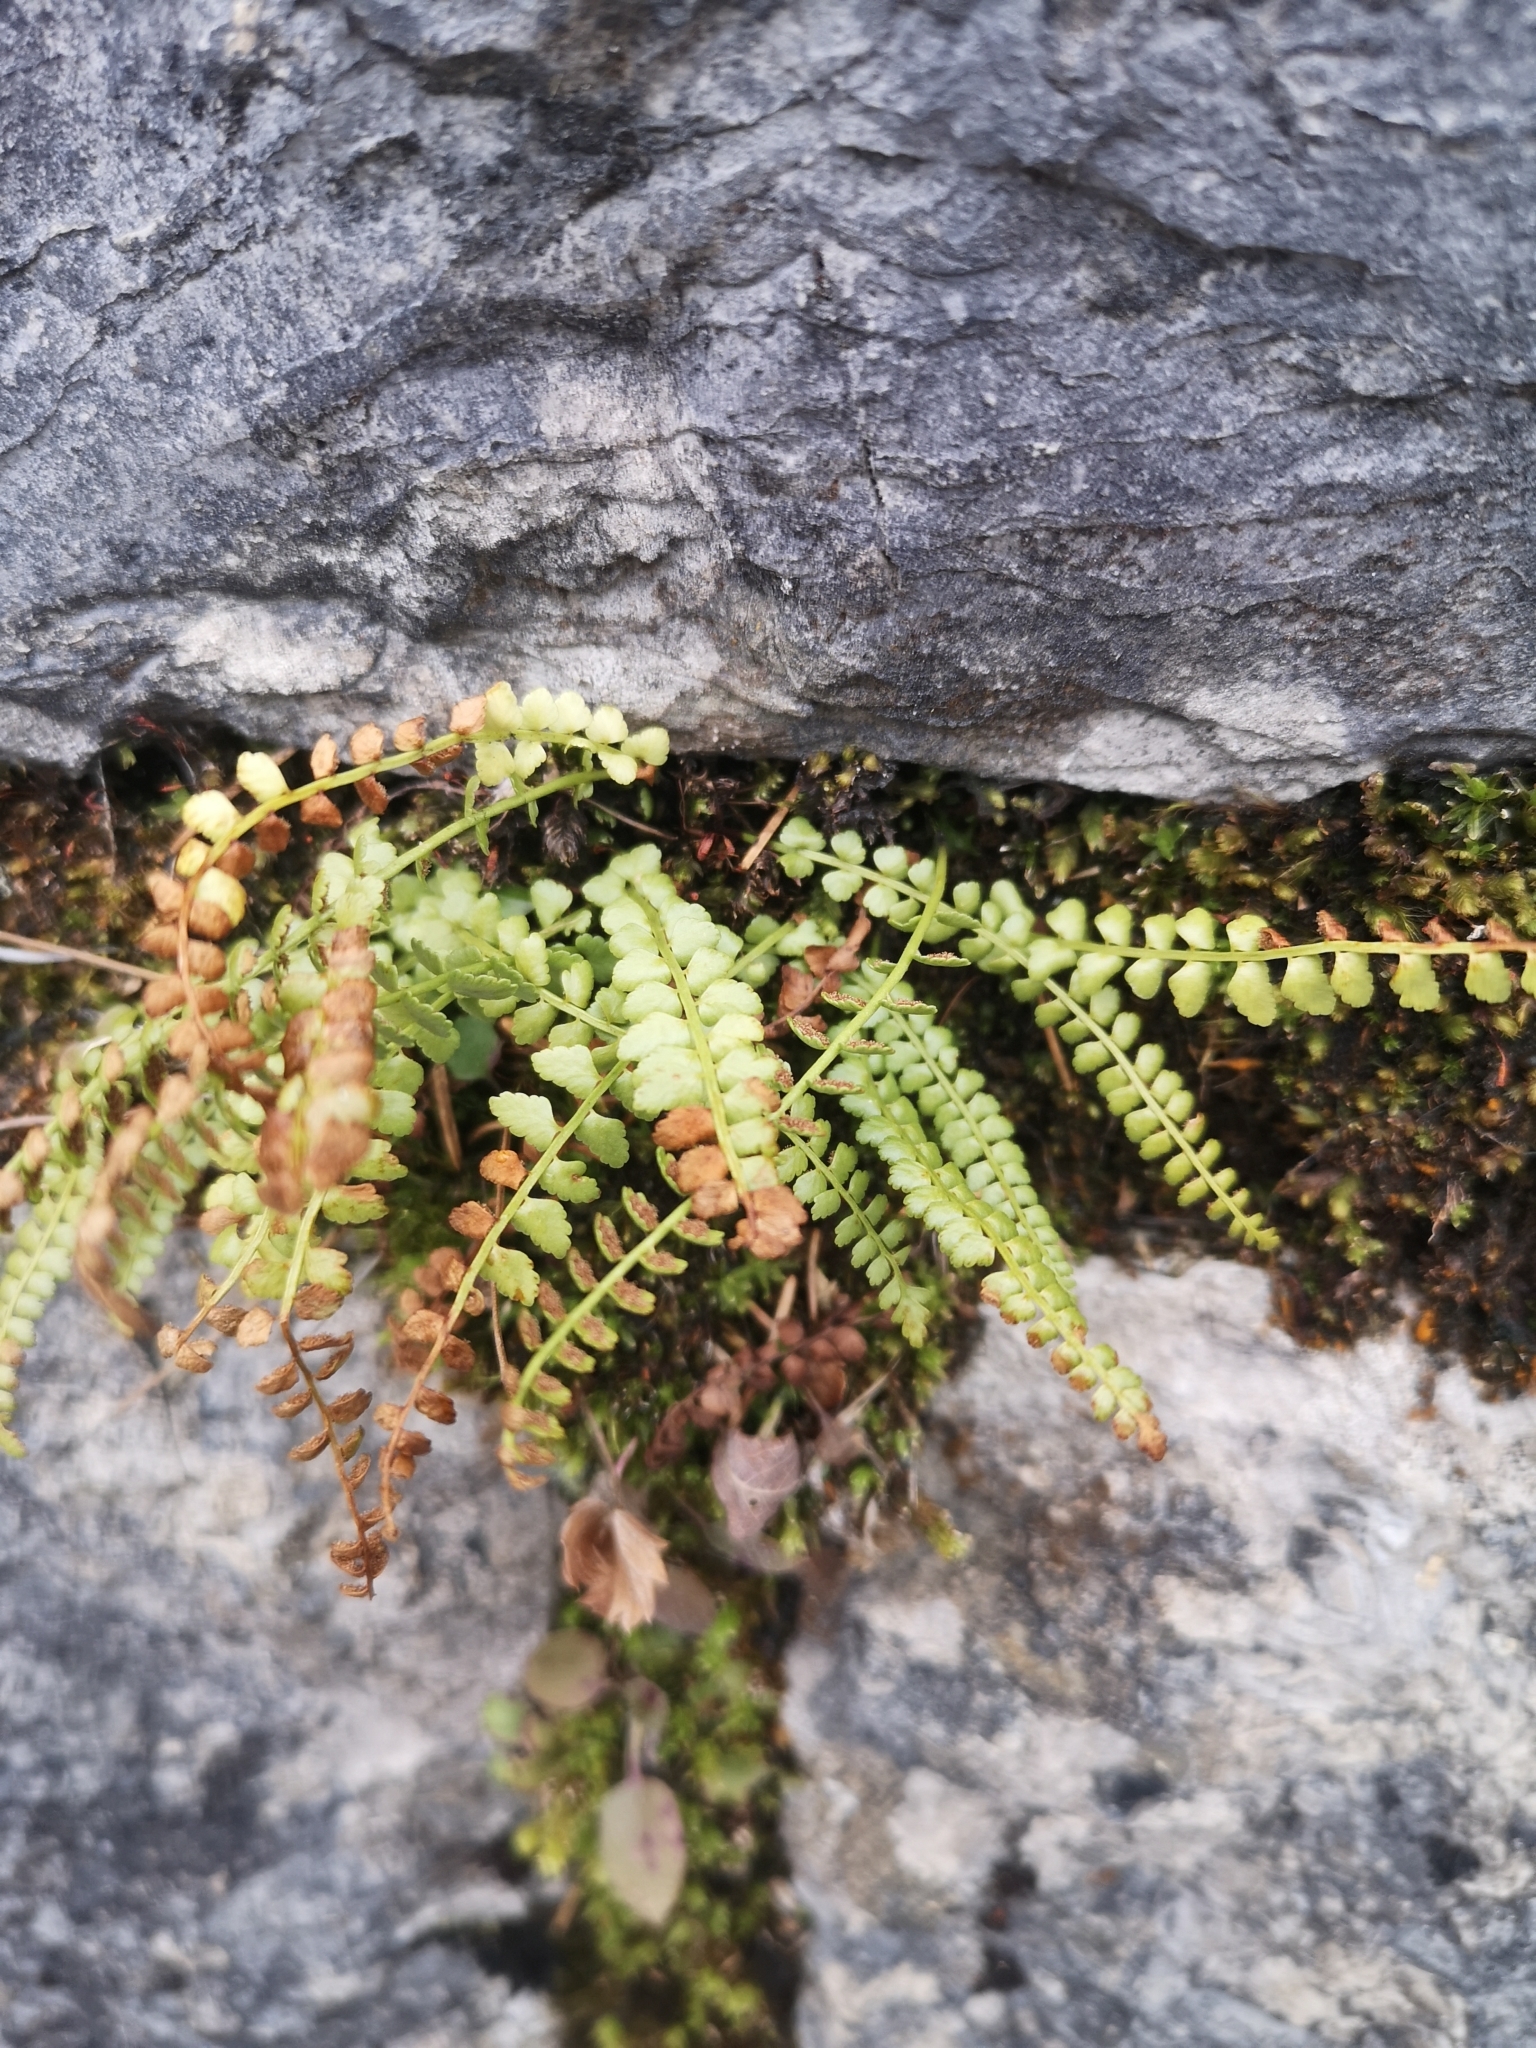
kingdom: Plantae
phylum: Tracheophyta
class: Polypodiopsida
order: Polypodiales
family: Aspleniaceae
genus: Asplenium
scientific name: Asplenium viride
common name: Green spleenwort
